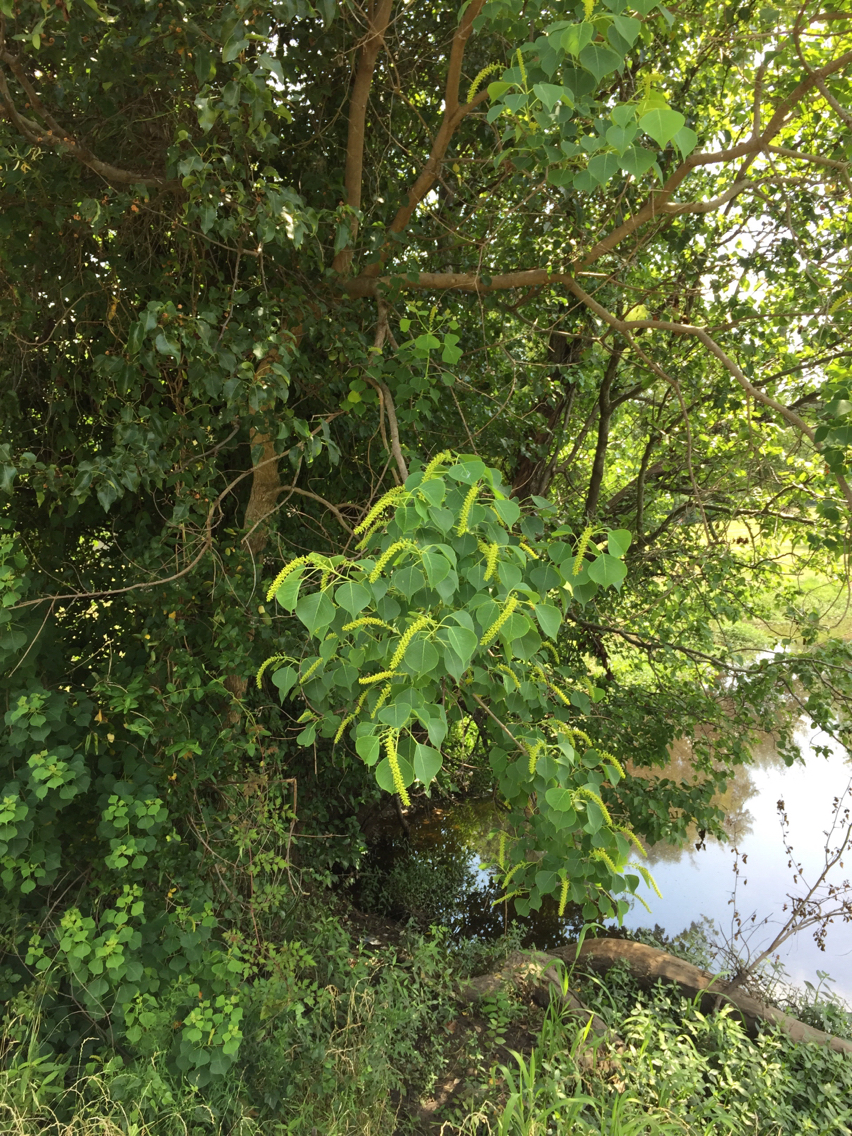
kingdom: Plantae
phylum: Tracheophyta
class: Magnoliopsida
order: Malpighiales
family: Euphorbiaceae
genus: Triadica
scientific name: Triadica sebifera
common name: Chinese tallow
